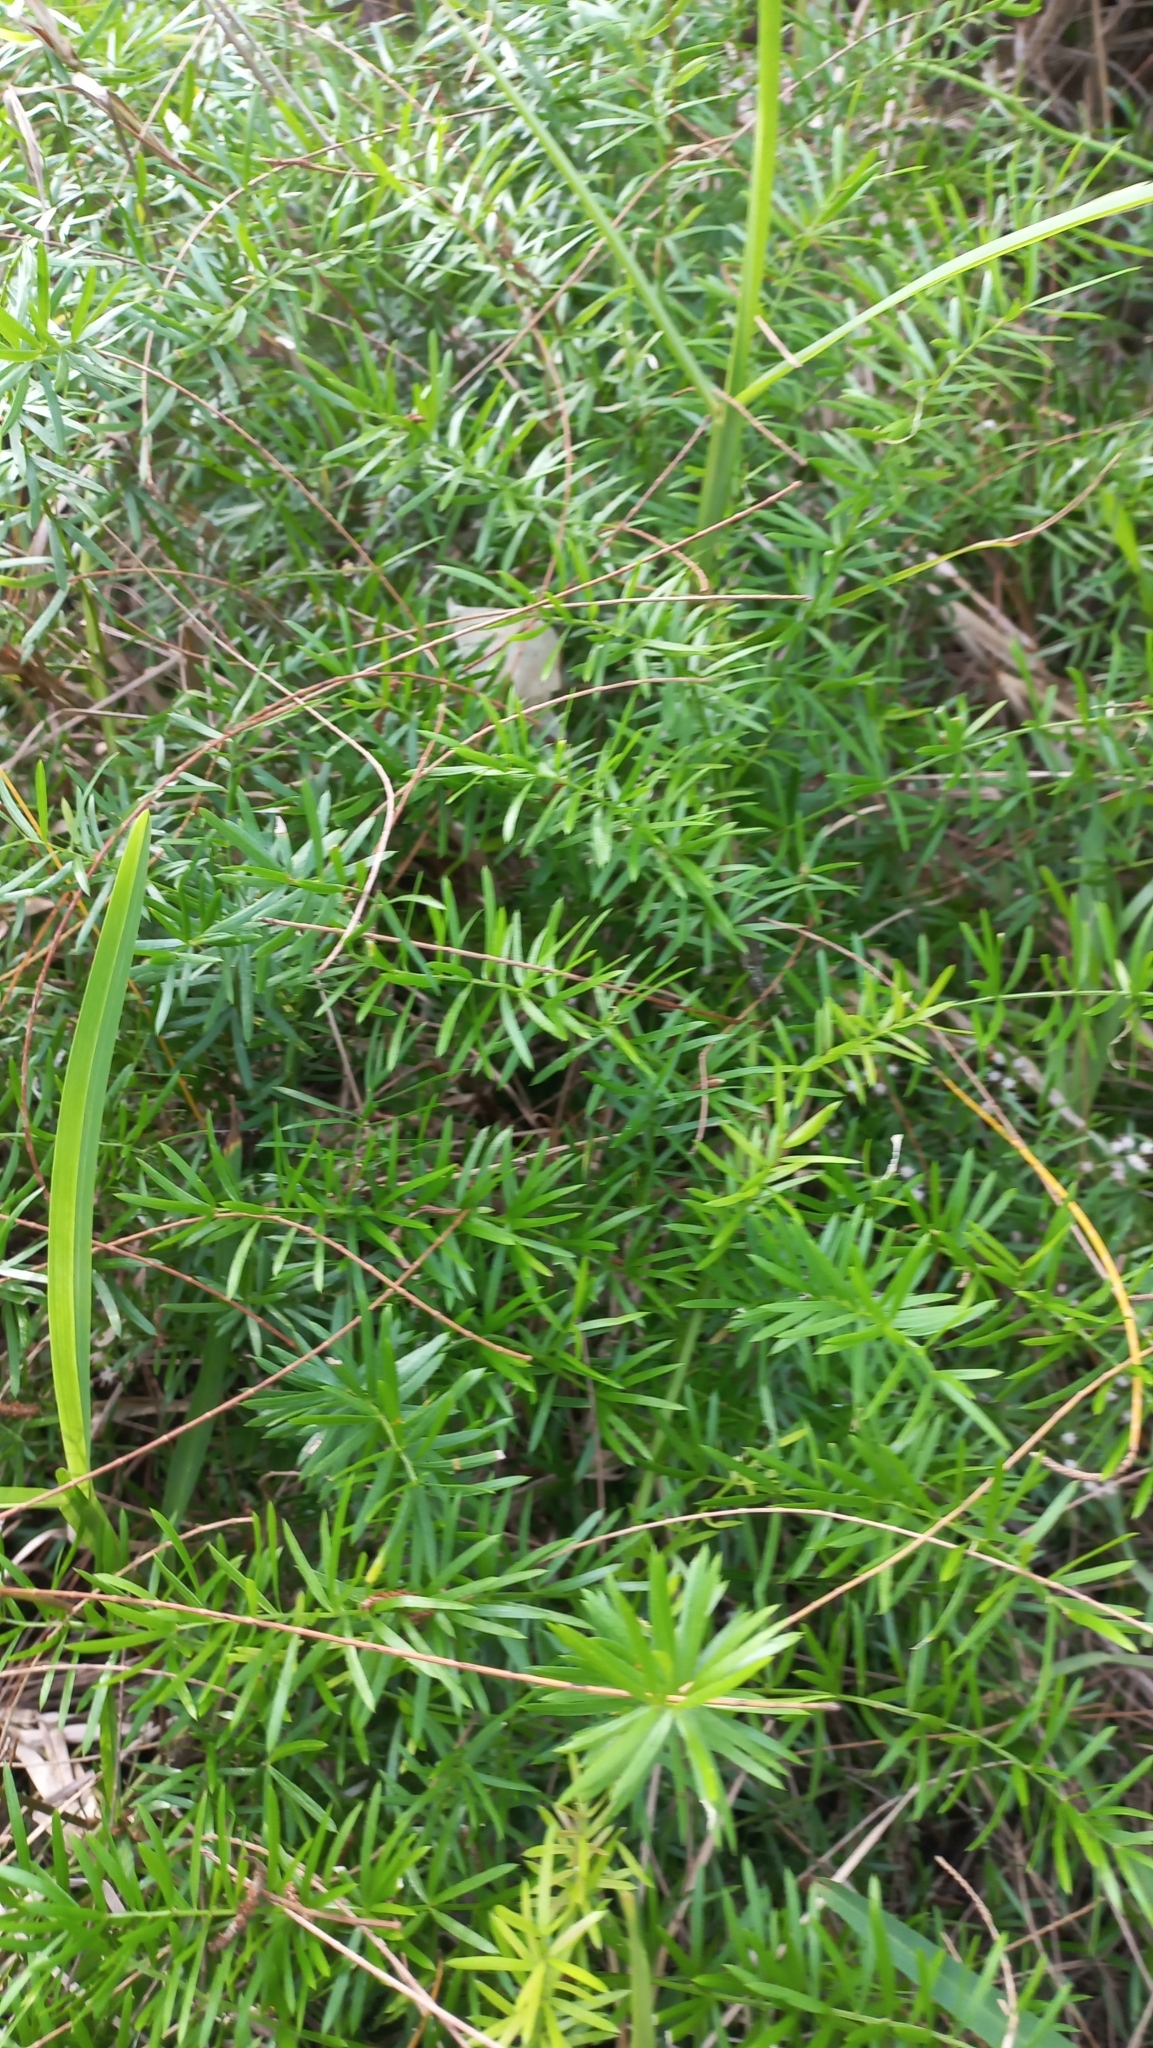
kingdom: Plantae
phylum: Tracheophyta
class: Liliopsida
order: Asparagales
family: Asparagaceae
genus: Asparagus
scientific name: Asparagus aethiopicus
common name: Sprenger's asparagus fern
